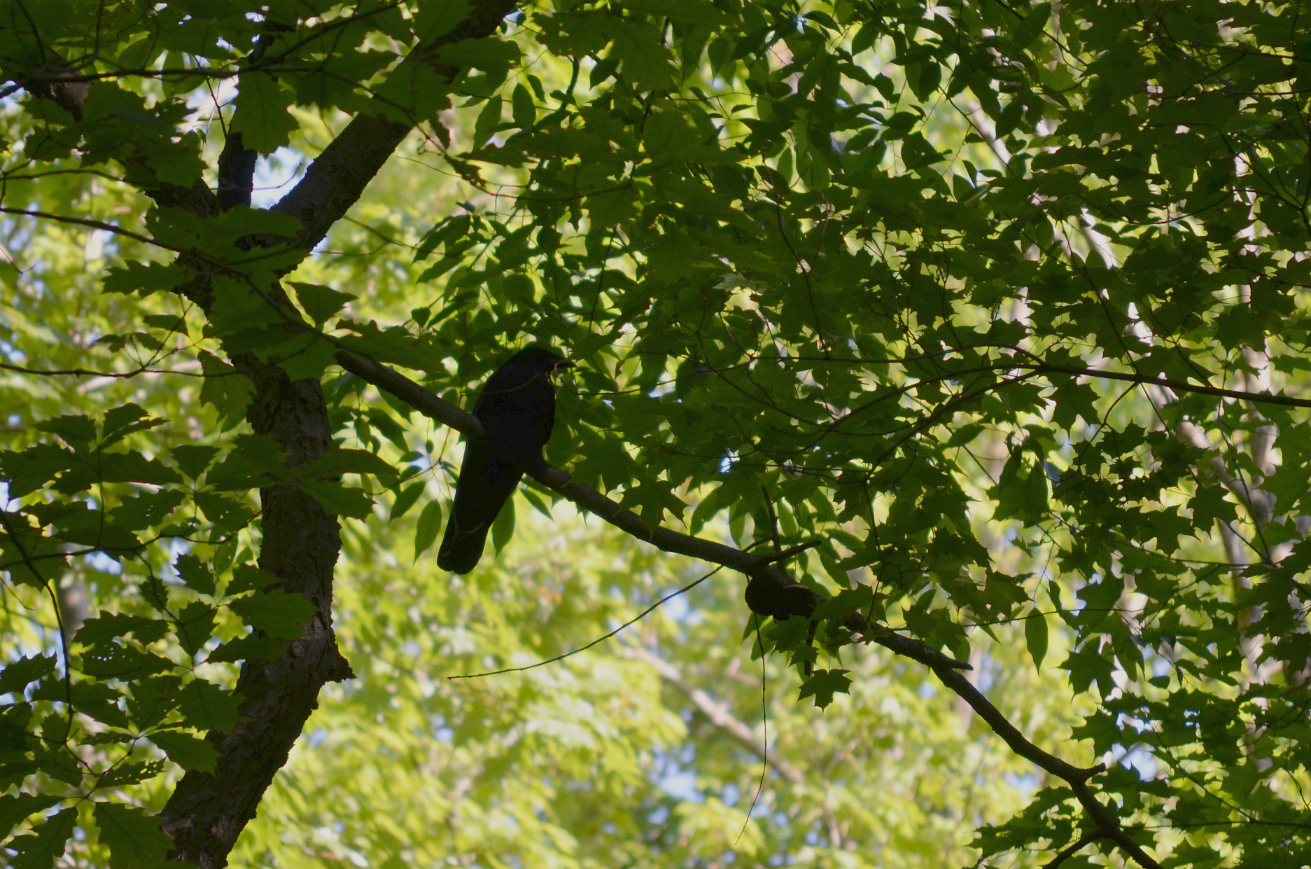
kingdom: Animalia
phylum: Chordata
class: Aves
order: Passeriformes
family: Corvidae
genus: Corvus
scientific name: Corvus brachyrhynchos
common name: American crow
